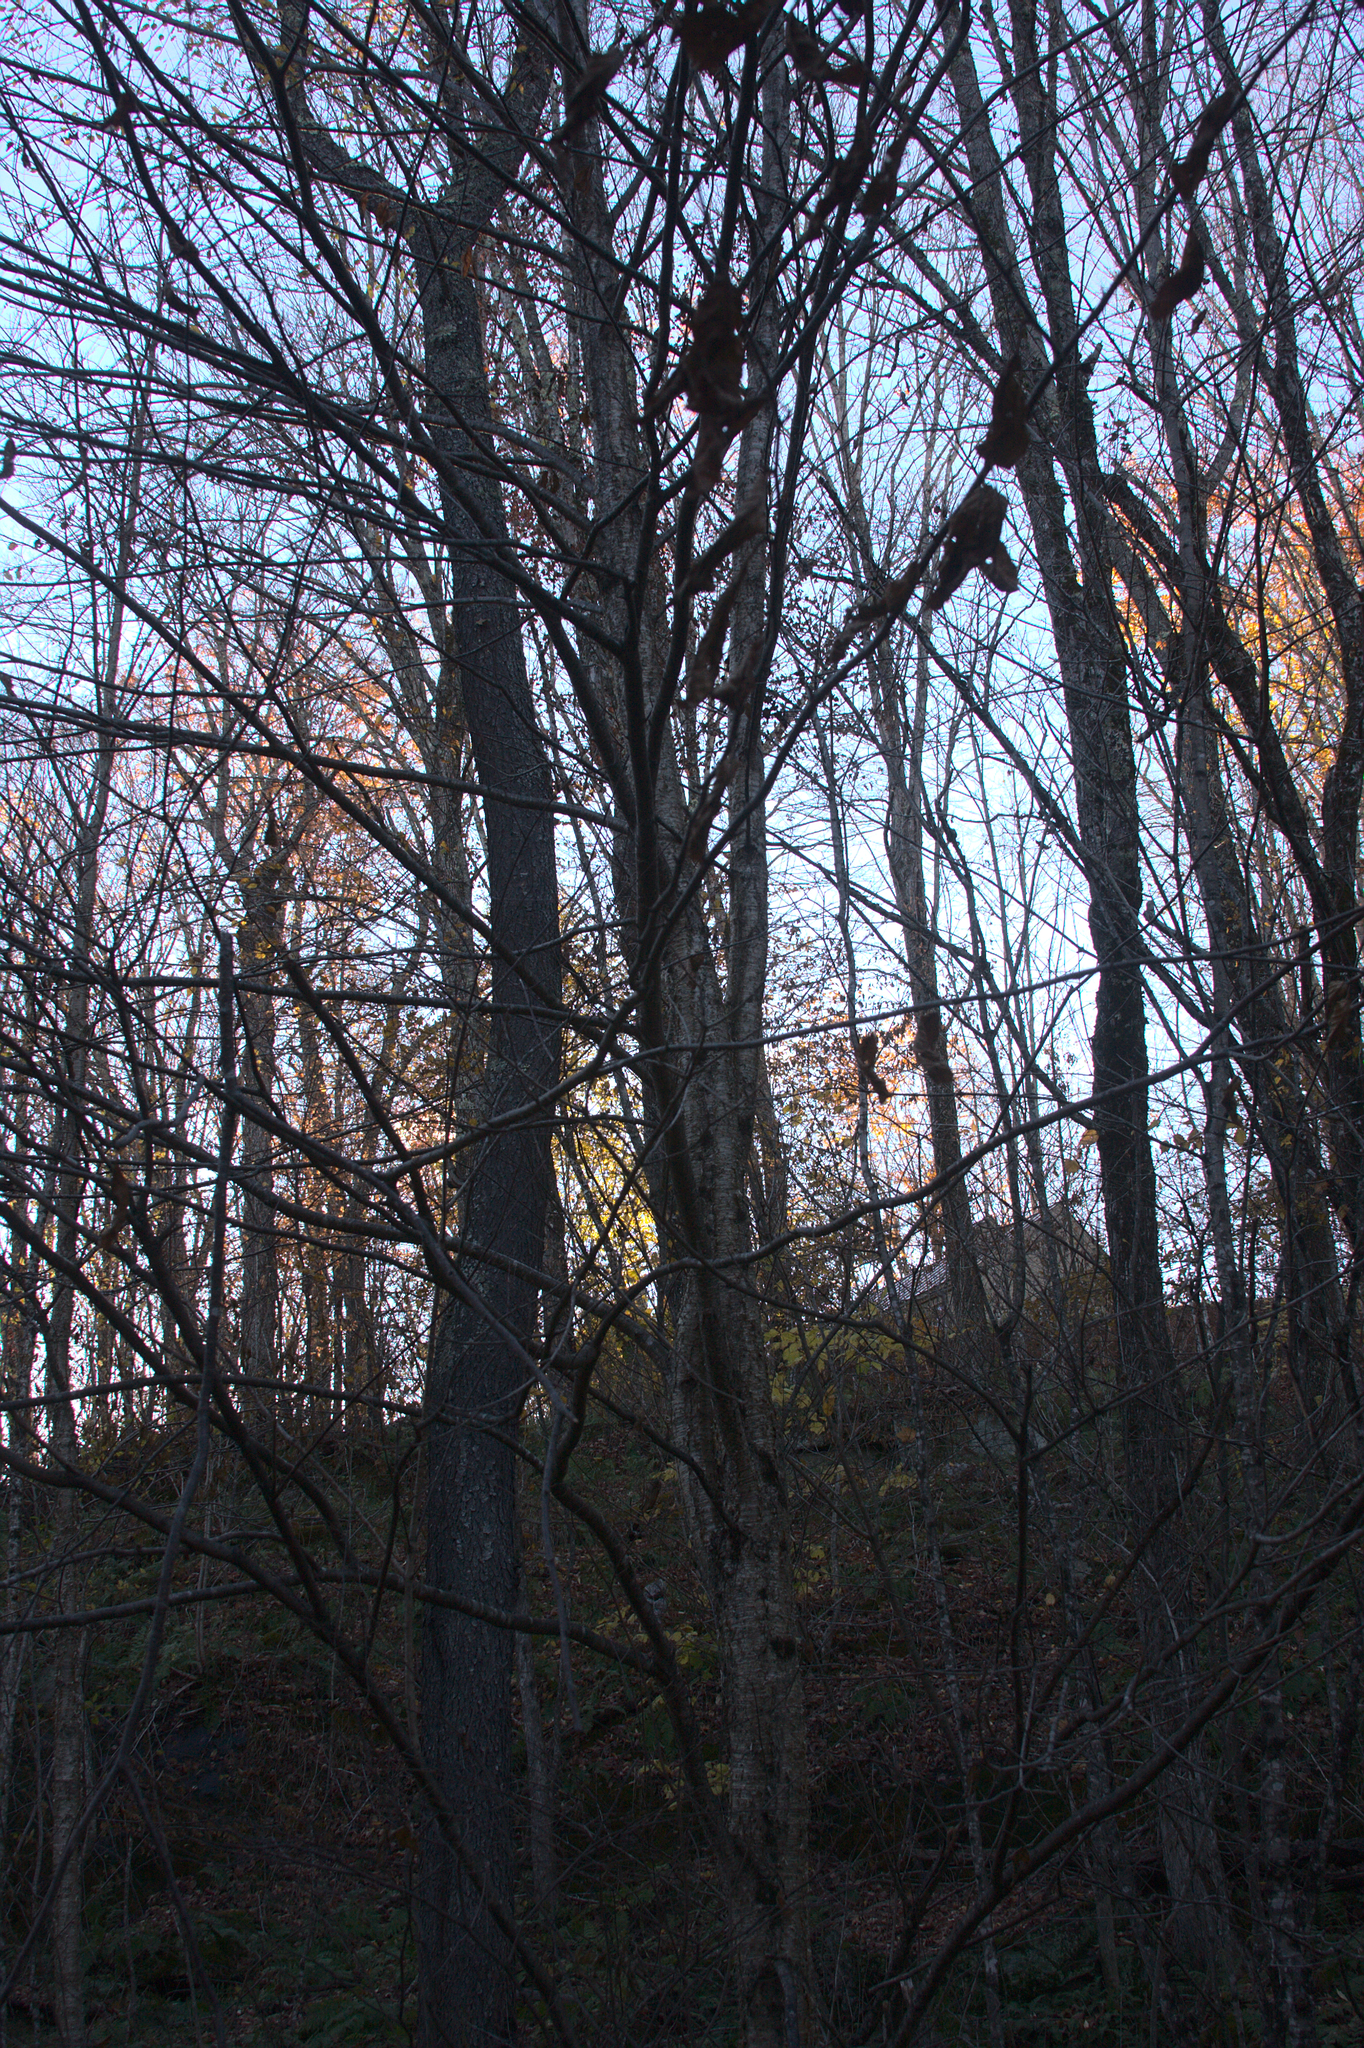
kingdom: Plantae
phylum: Tracheophyta
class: Magnoliopsida
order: Fagales
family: Betulaceae
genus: Betula
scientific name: Betula alleghaniensis
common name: Yellow birch
